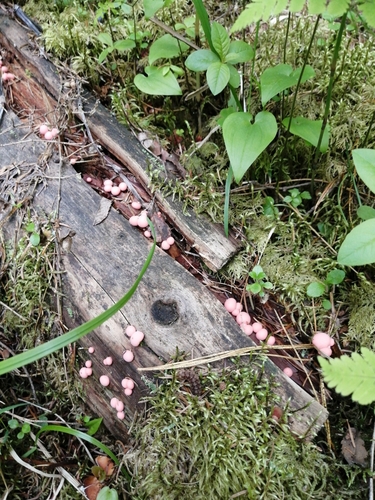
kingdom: Protozoa
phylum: Mycetozoa
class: Myxomycetes
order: Cribrariales
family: Tubiferaceae
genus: Lycogala
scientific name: Lycogala epidendrum
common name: Wolf's milk
